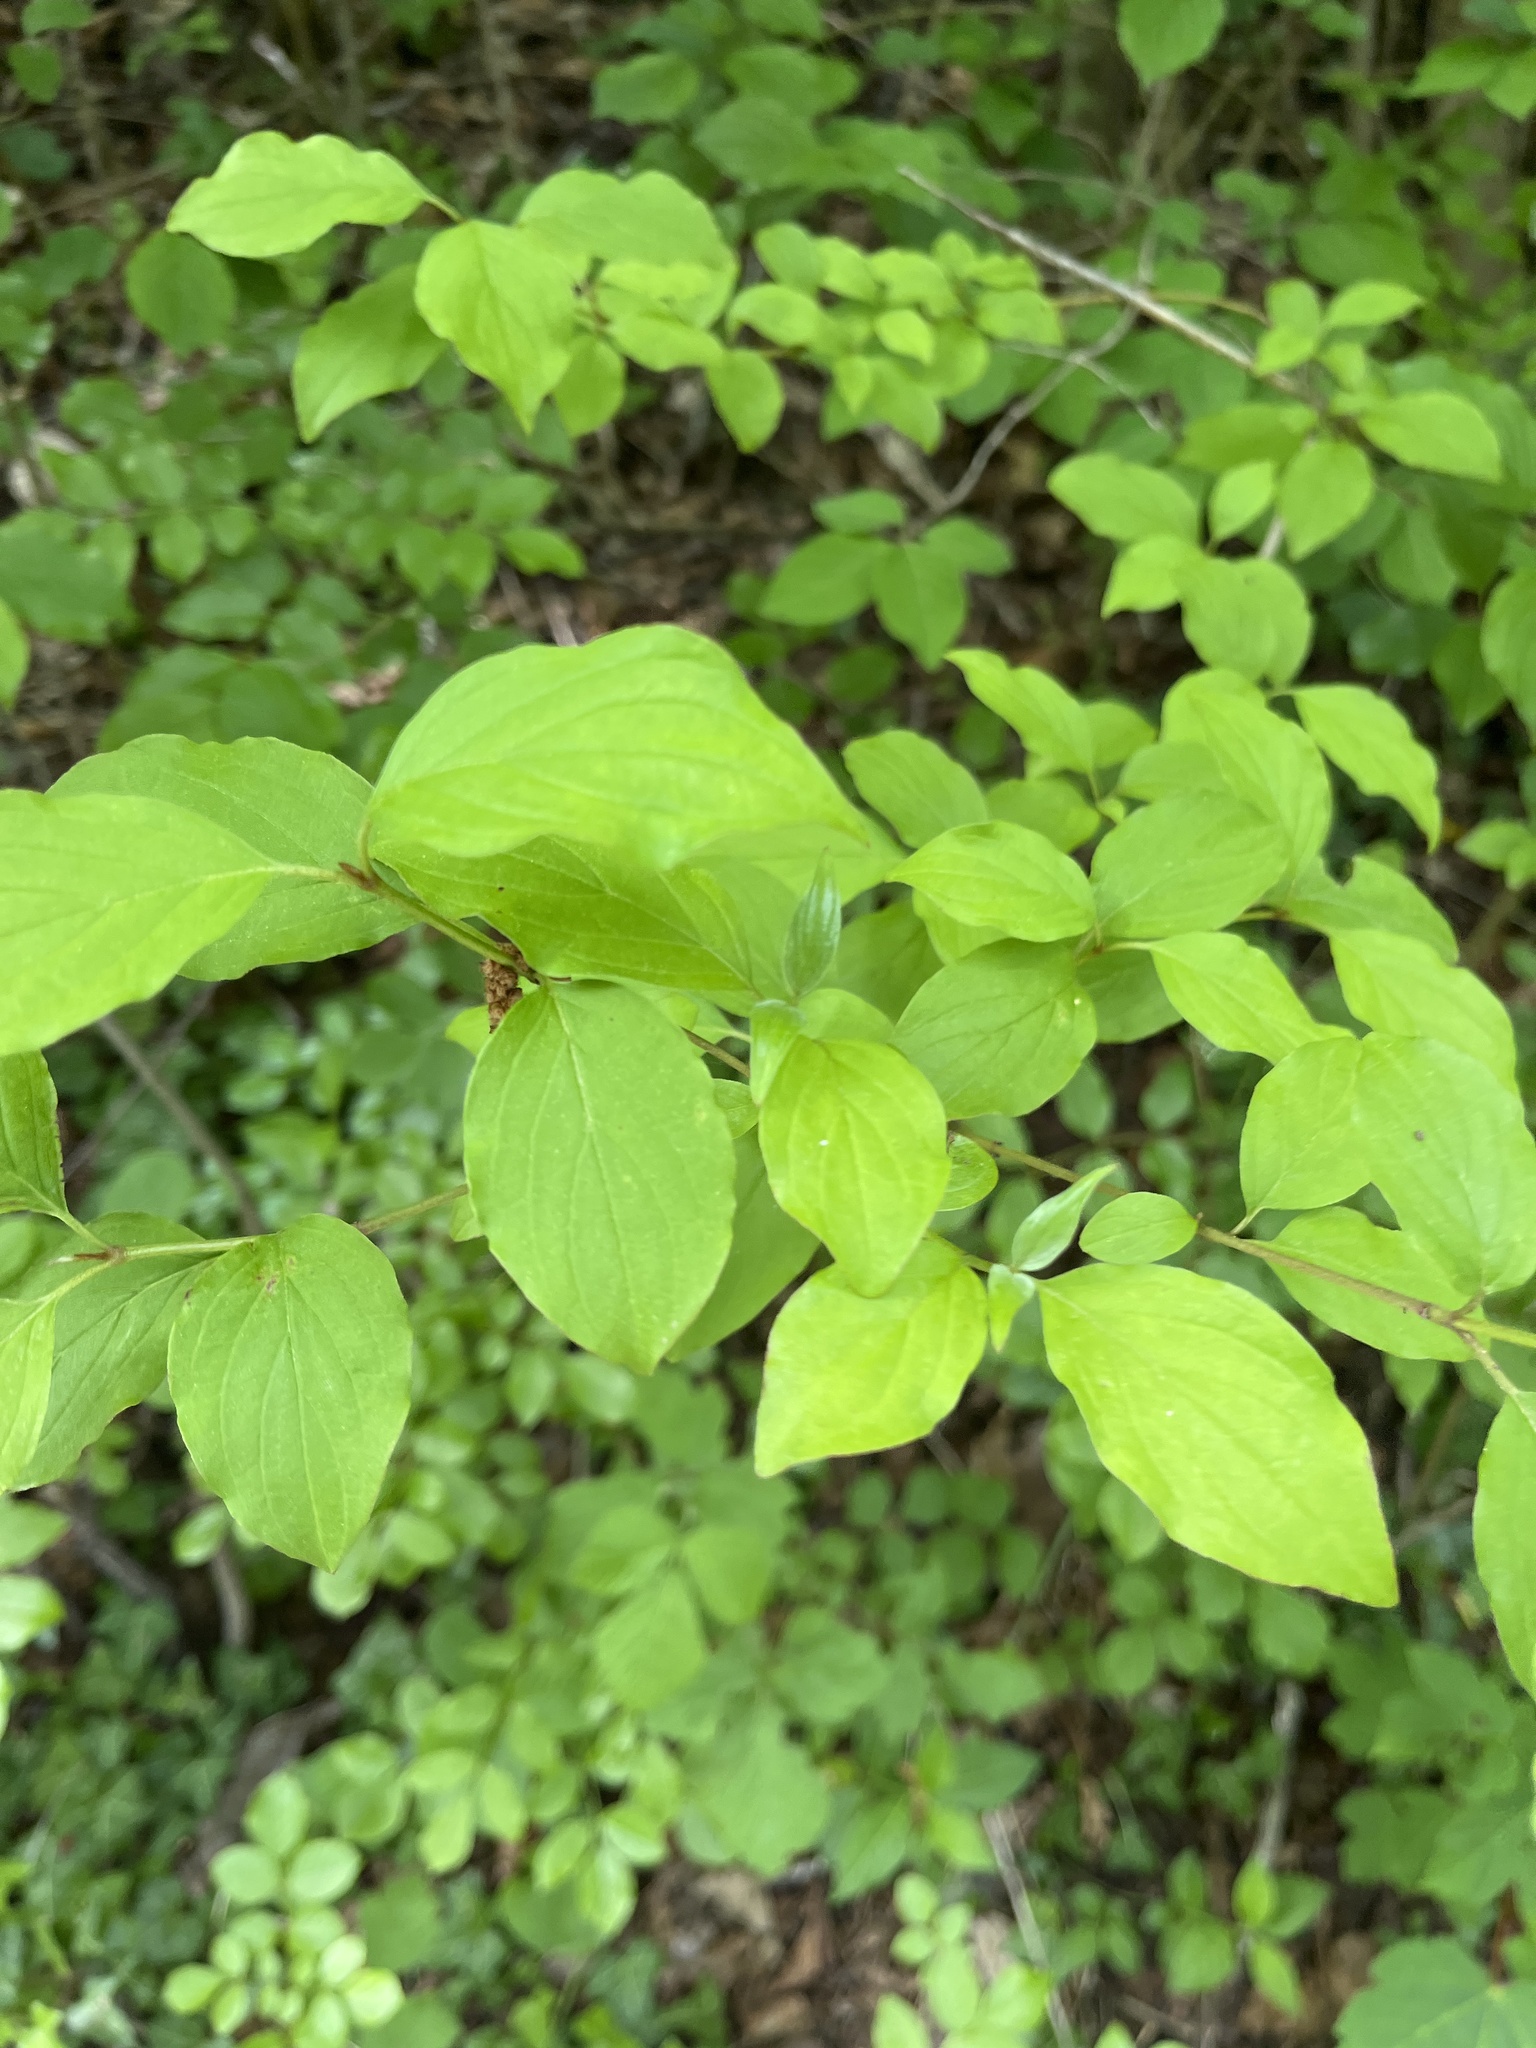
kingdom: Plantae
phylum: Tracheophyta
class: Magnoliopsida
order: Cornales
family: Cornaceae
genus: Cornus
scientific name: Cornus mas
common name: Cornelian-cherry
